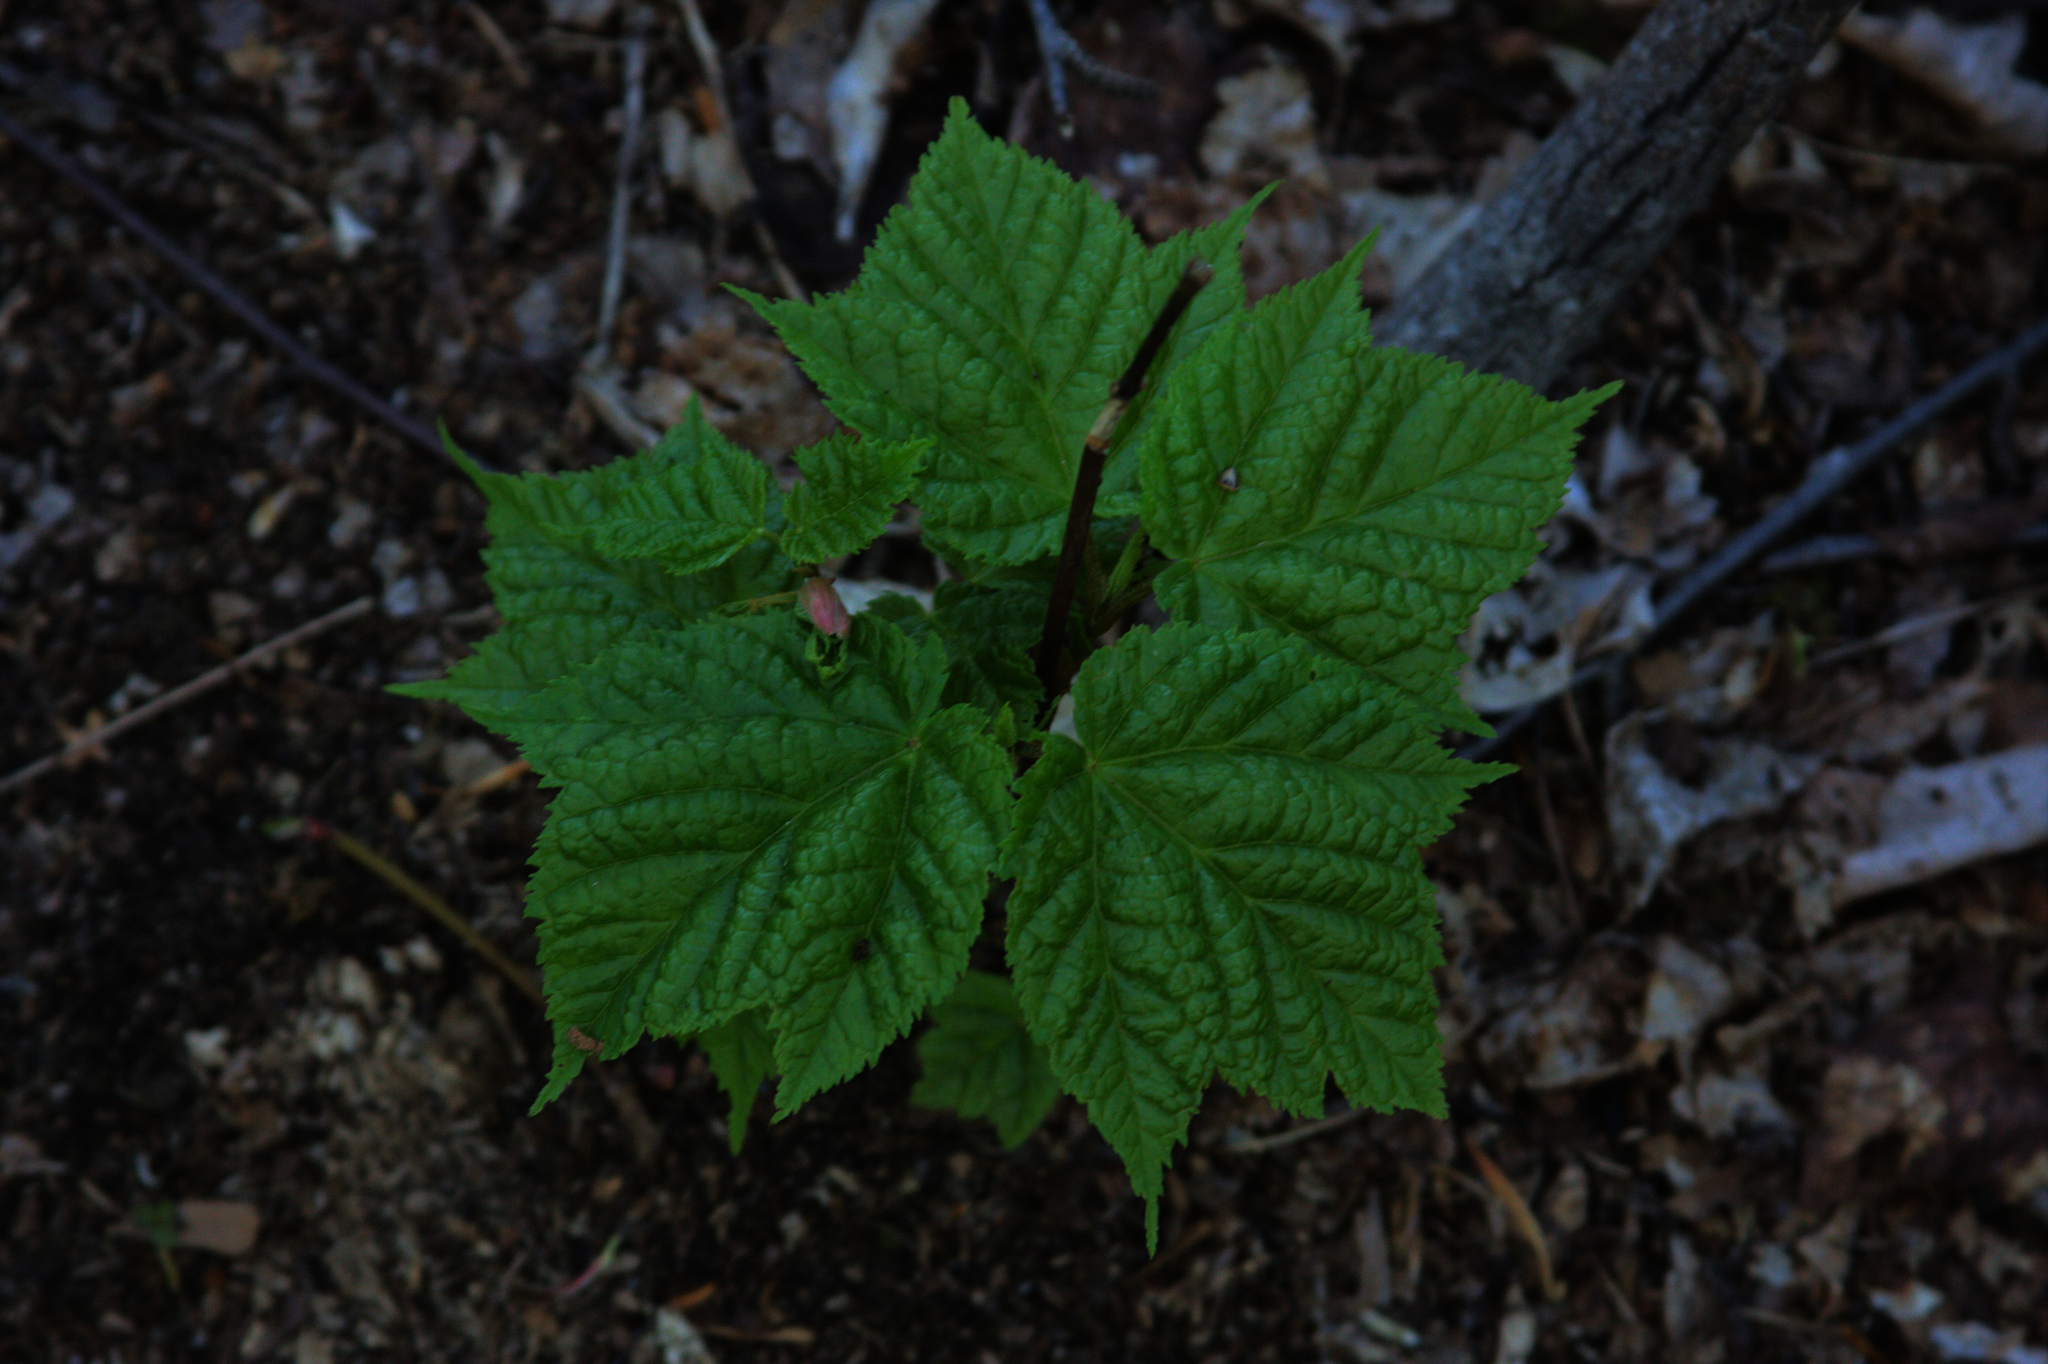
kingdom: Plantae
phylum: Tracheophyta
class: Magnoliopsida
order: Sapindales
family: Sapindaceae
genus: Acer
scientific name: Acer pensylvanicum
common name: Moosewood
